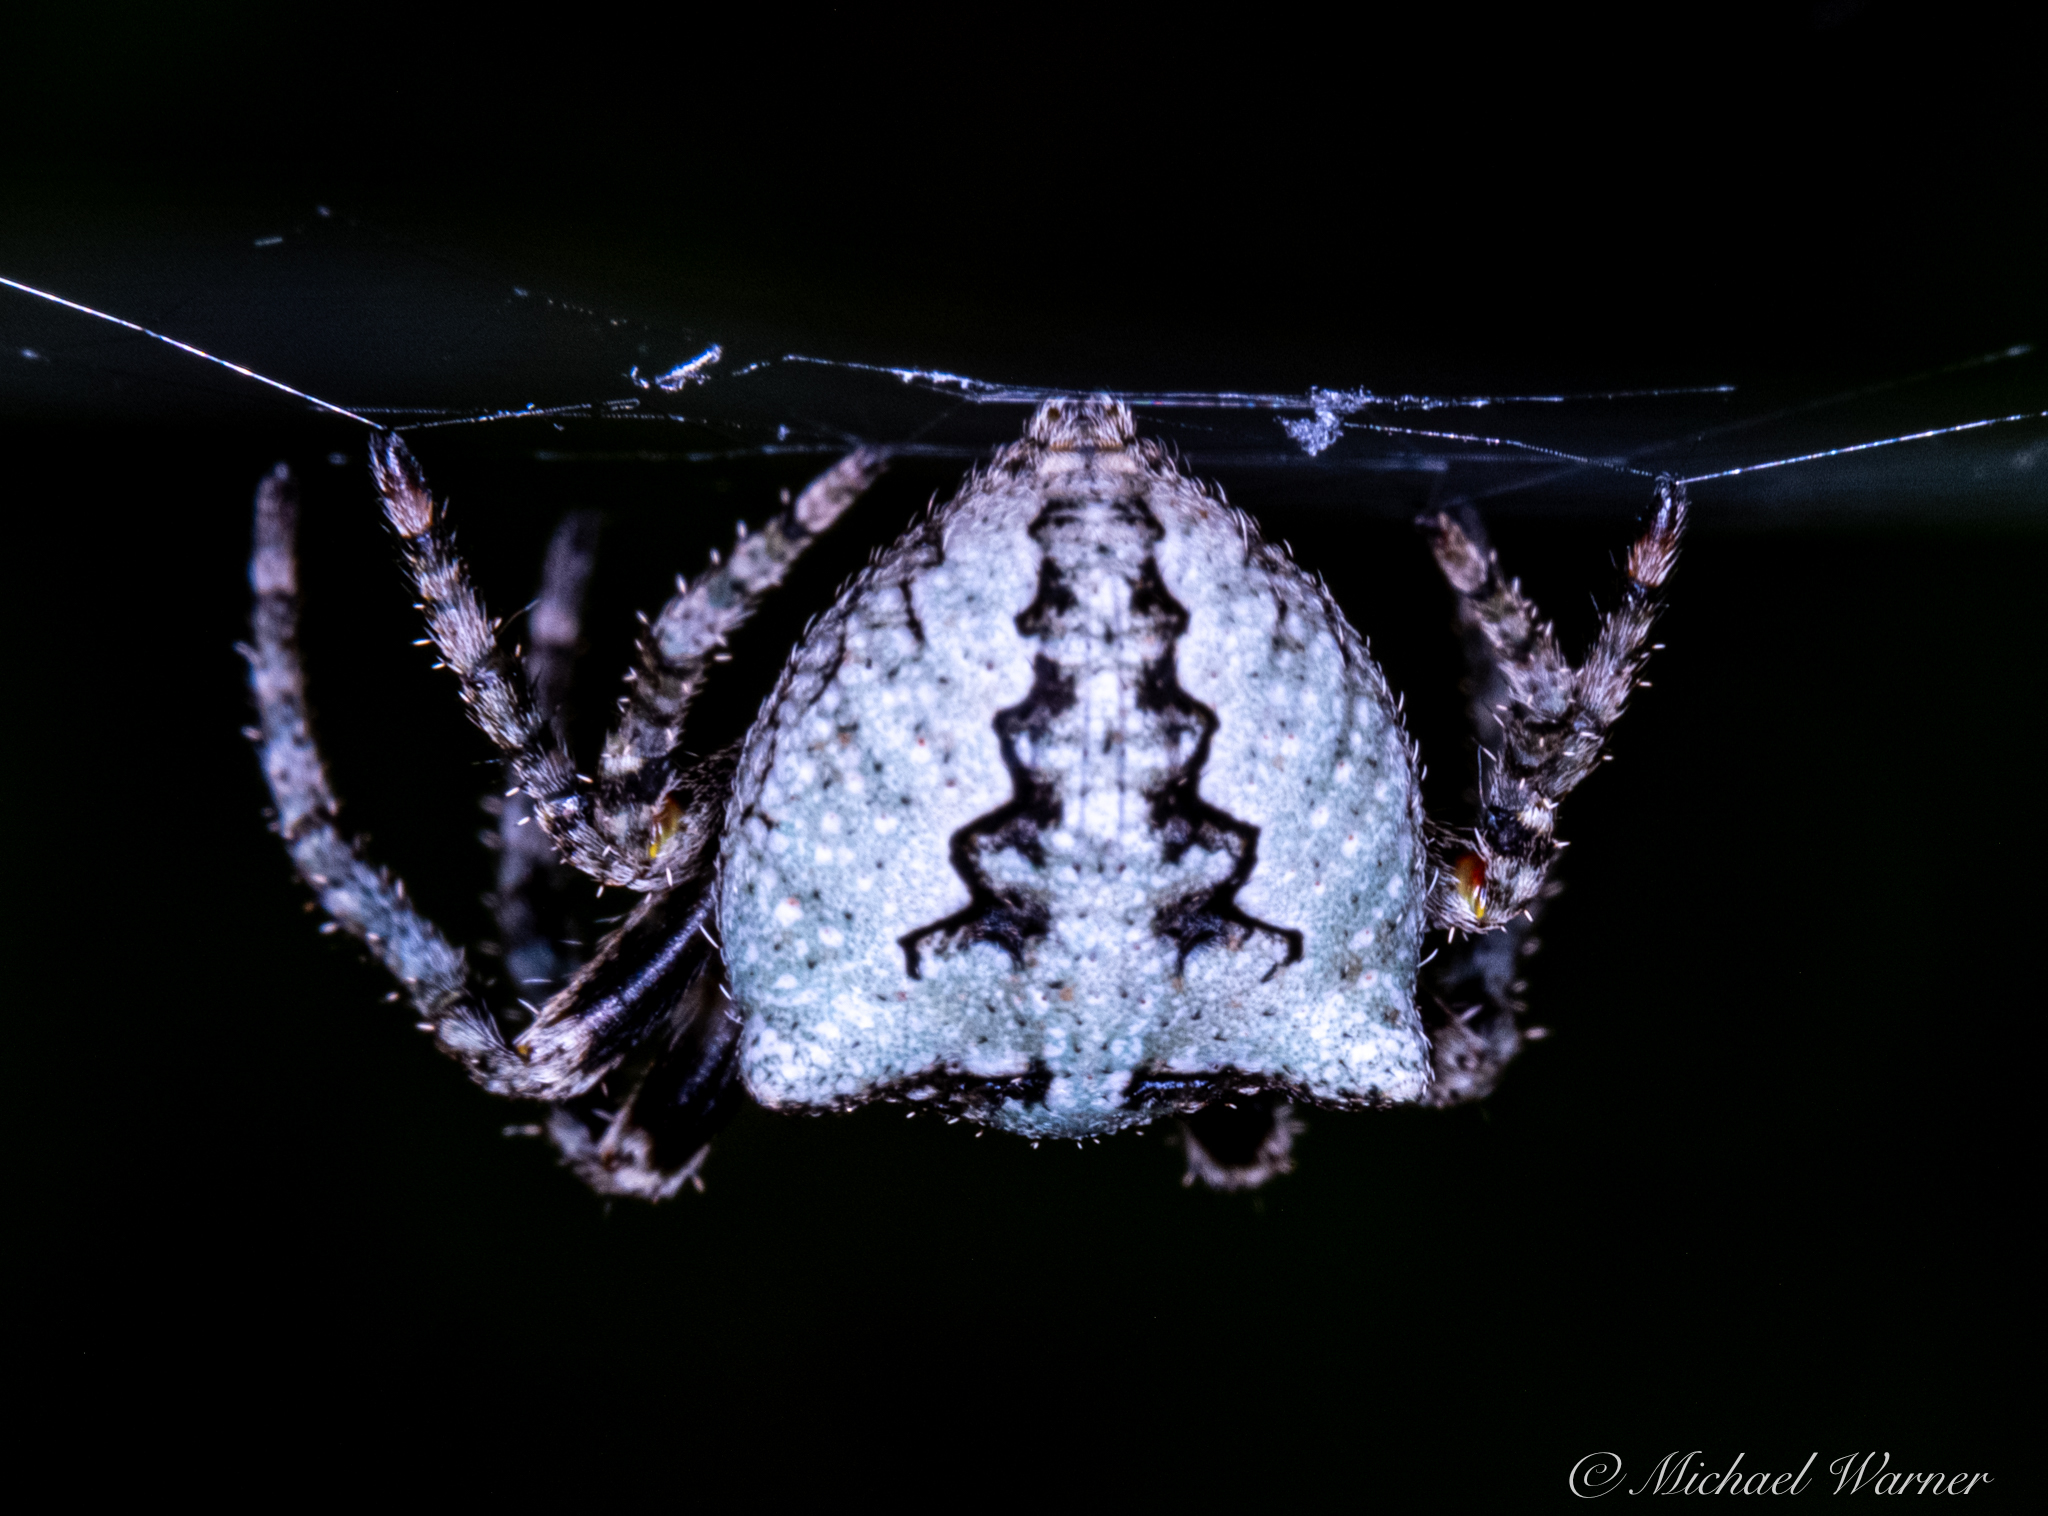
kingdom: Animalia
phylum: Arthropoda
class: Arachnida
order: Araneae
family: Araneidae
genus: Araneus
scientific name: Araneus andrewsi
